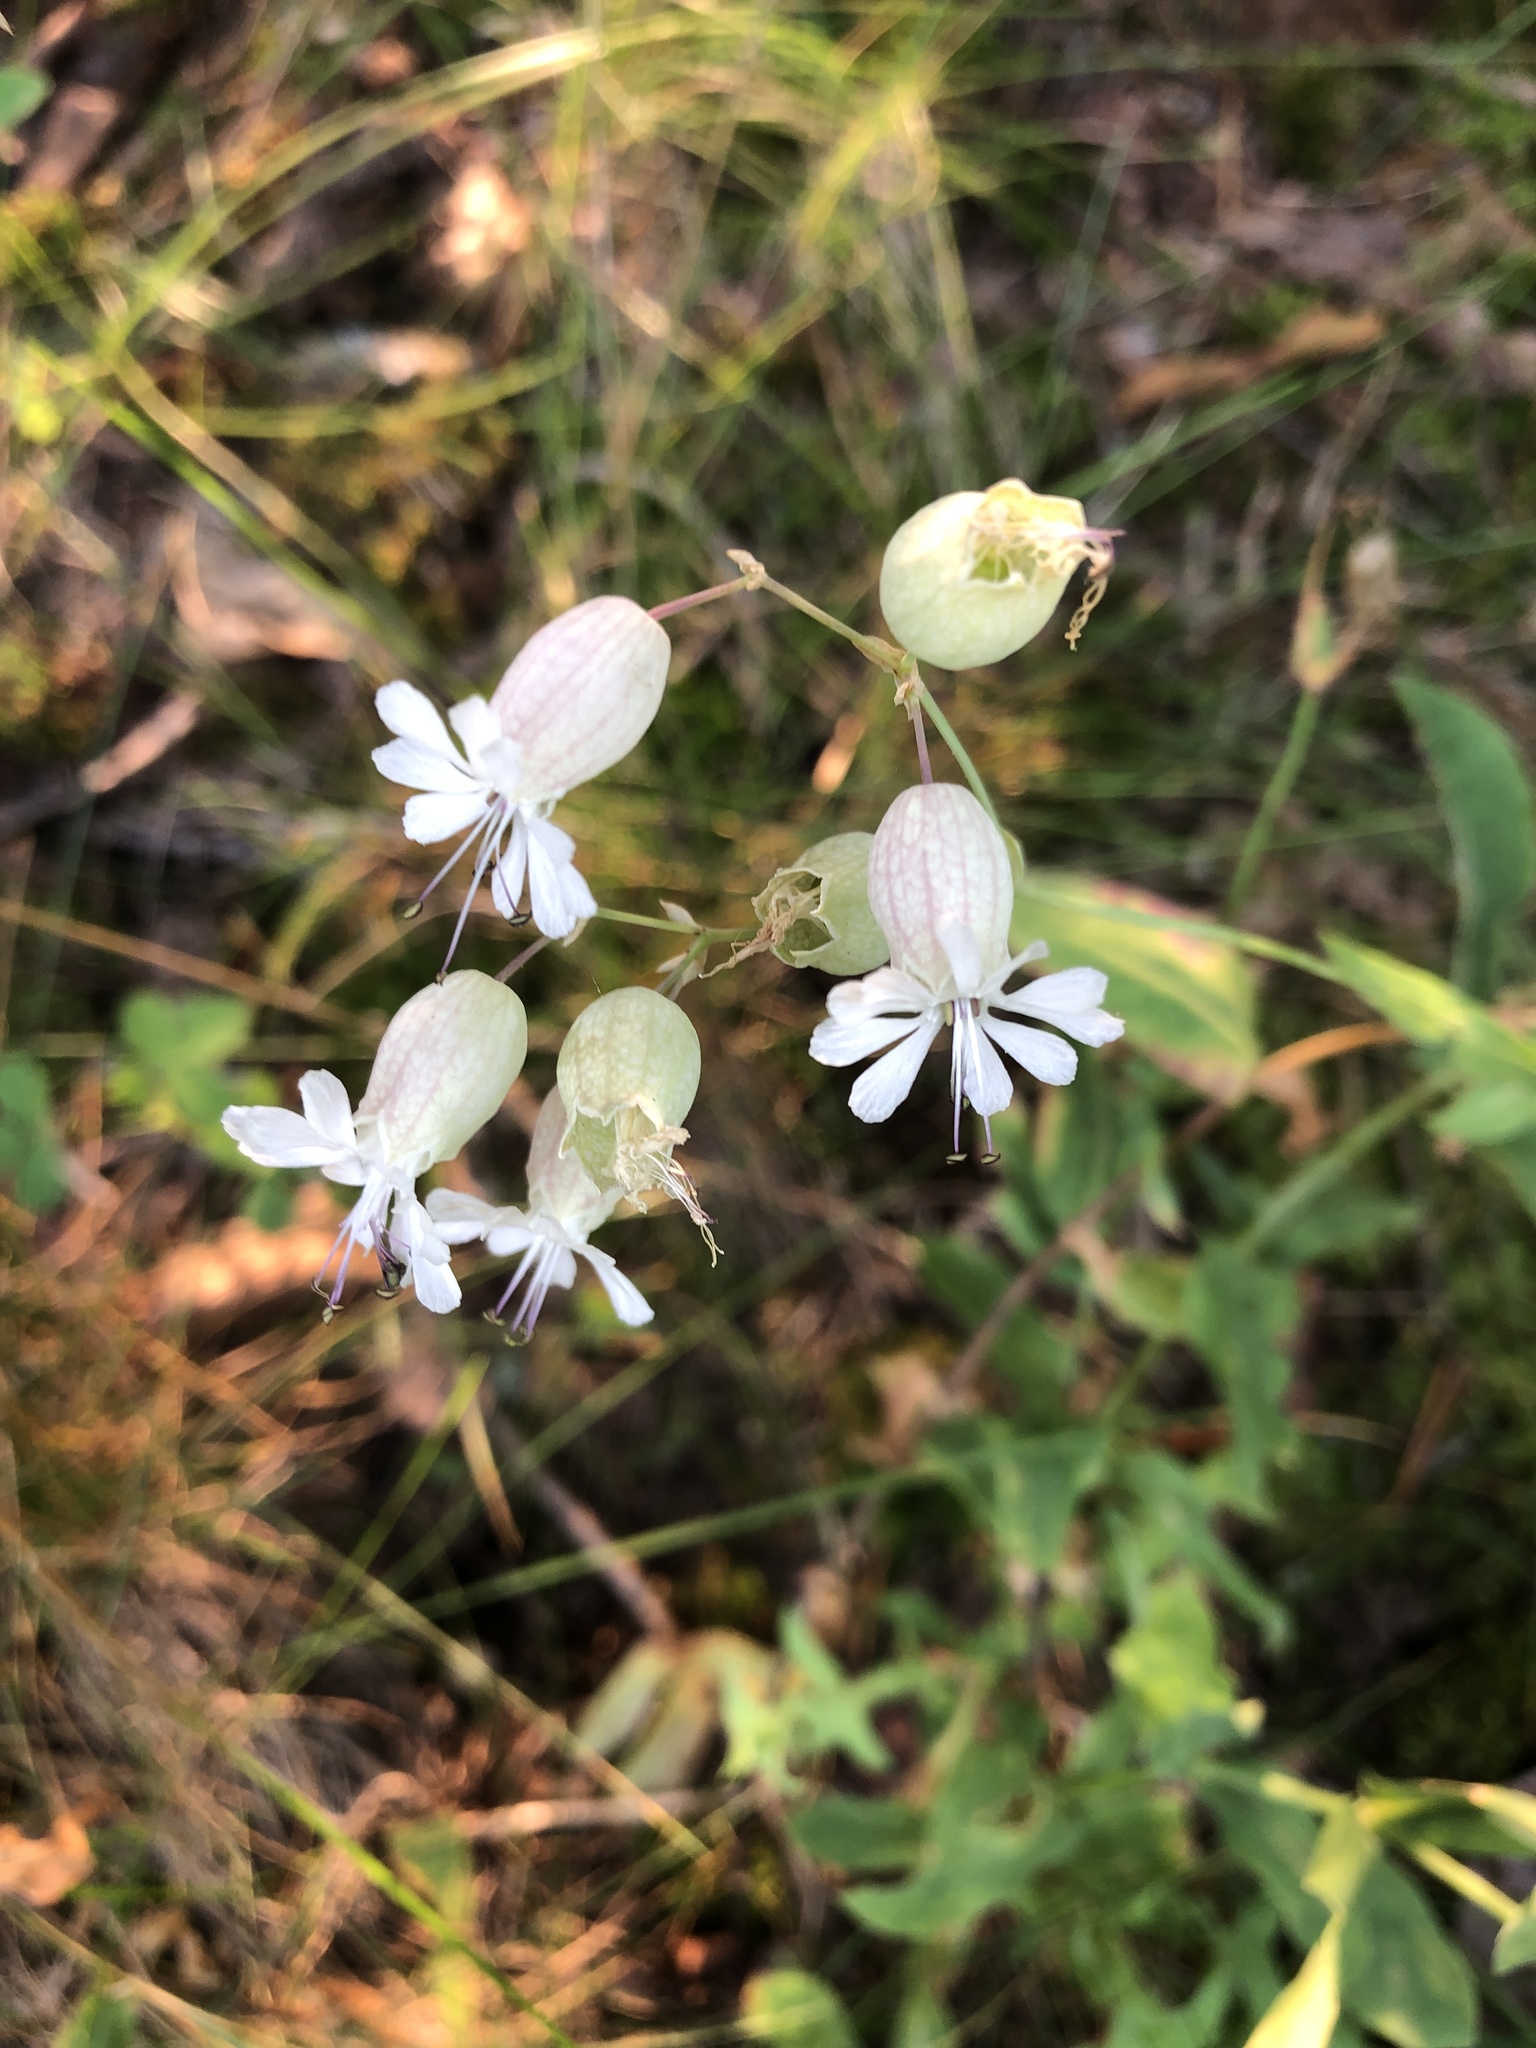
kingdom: Plantae
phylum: Tracheophyta
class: Magnoliopsida
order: Caryophyllales
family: Caryophyllaceae
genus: Silene
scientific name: Silene vulgaris
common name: Bladder campion
